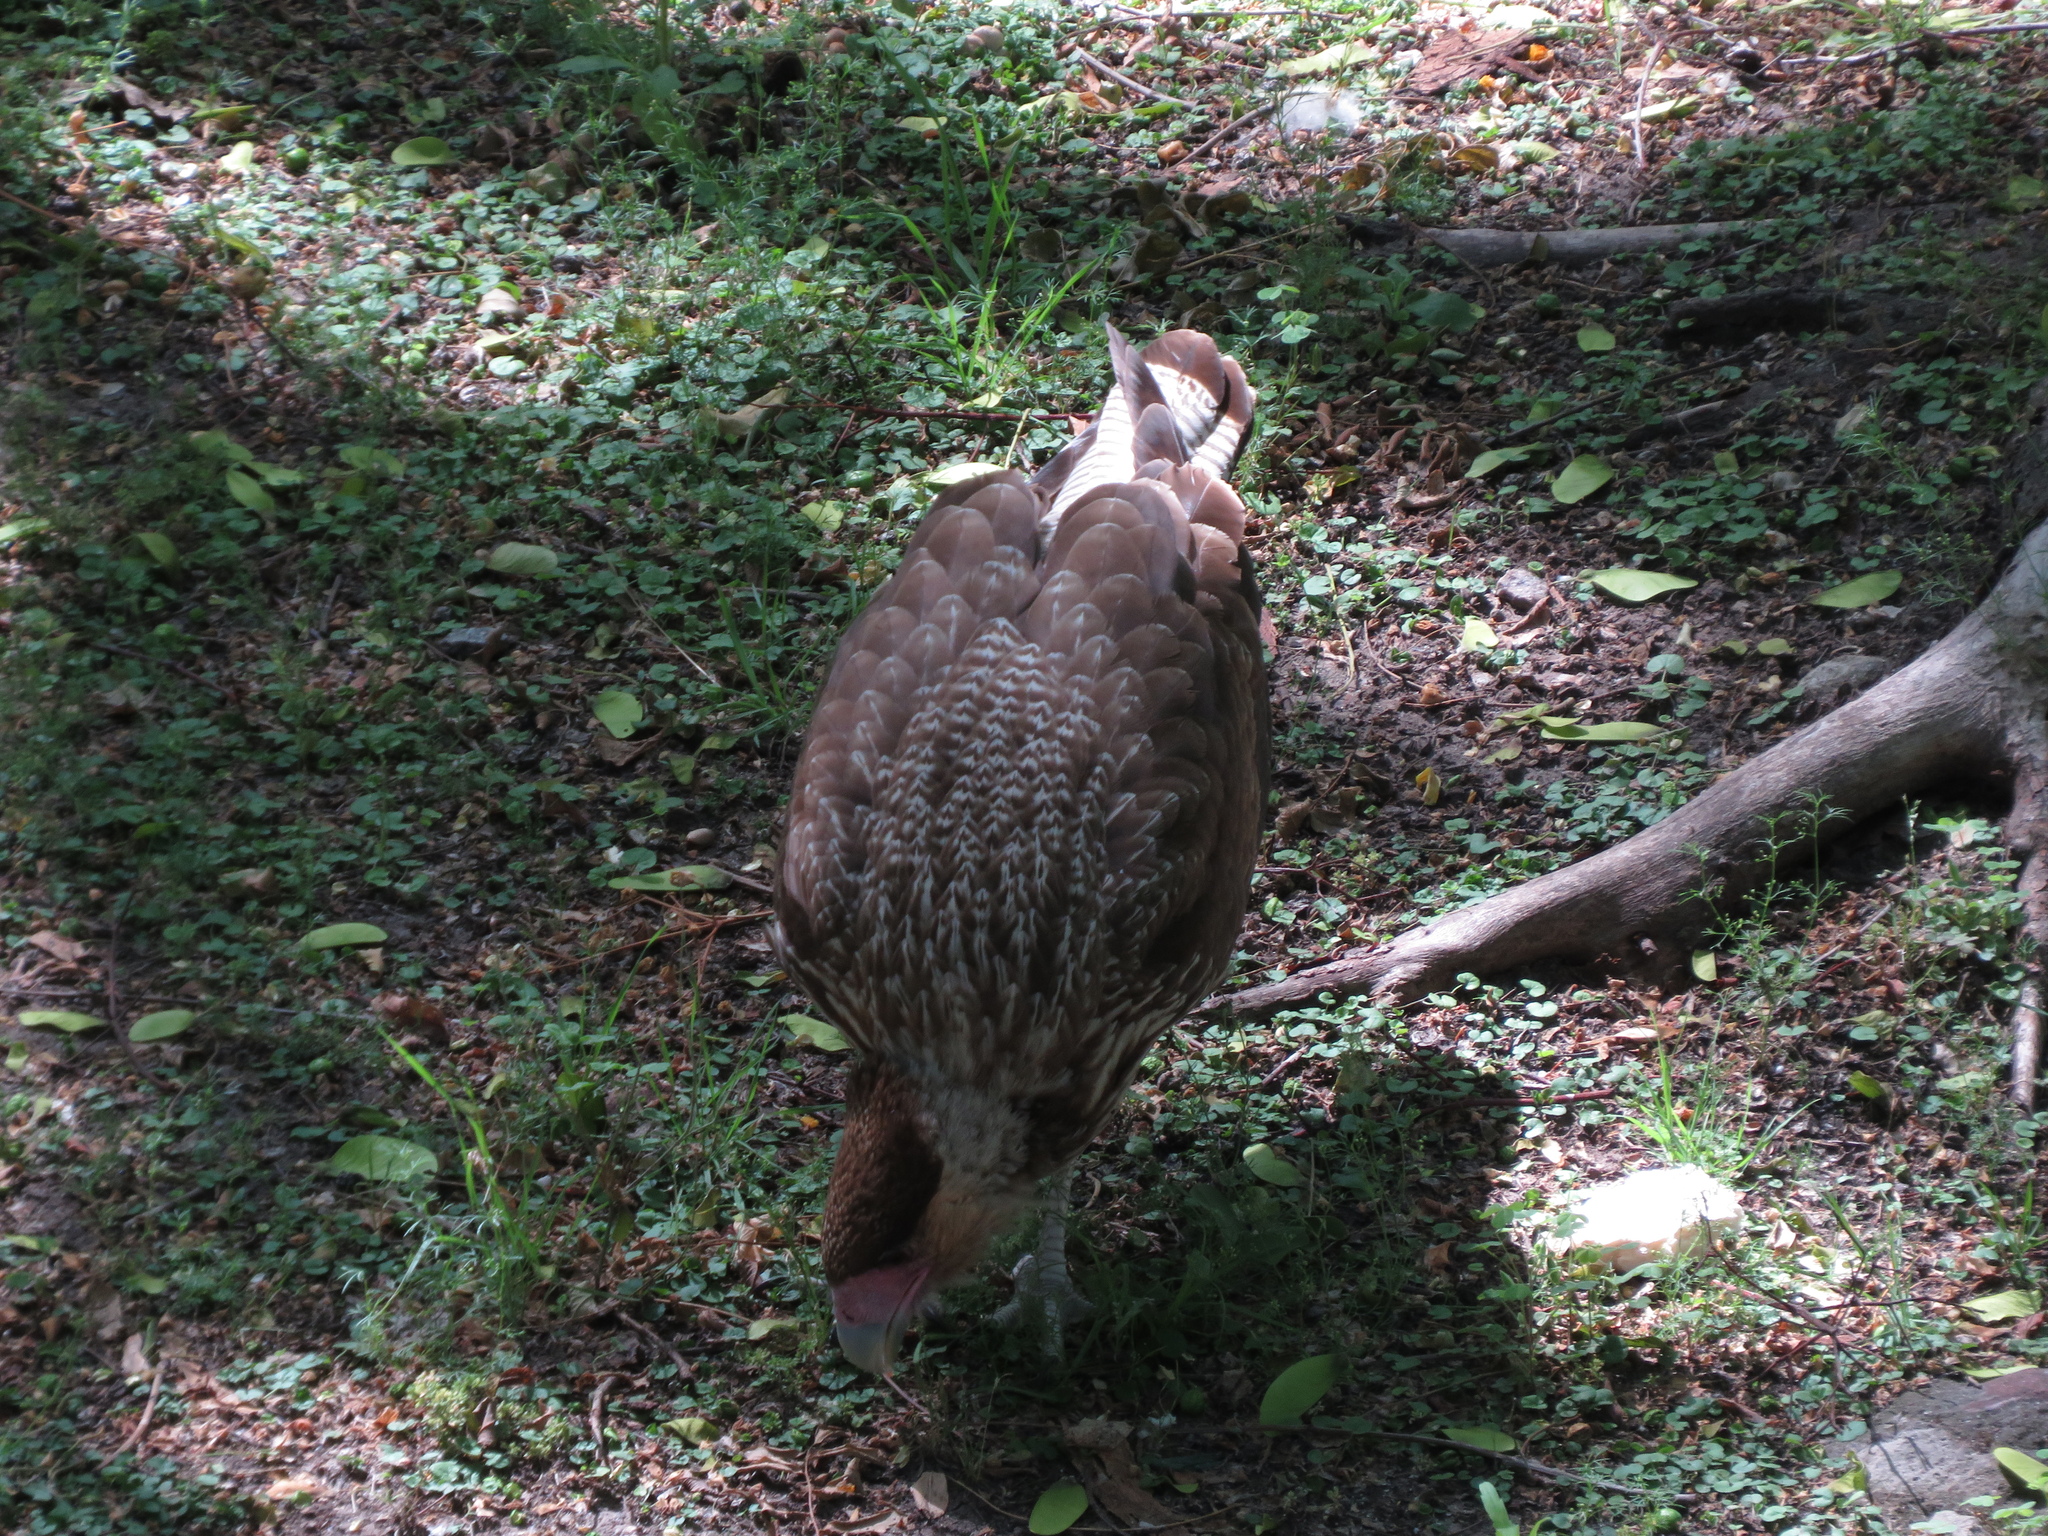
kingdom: Animalia
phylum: Chordata
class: Aves
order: Falconiformes
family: Falconidae
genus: Caracara
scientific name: Caracara plancus
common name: Southern caracara
